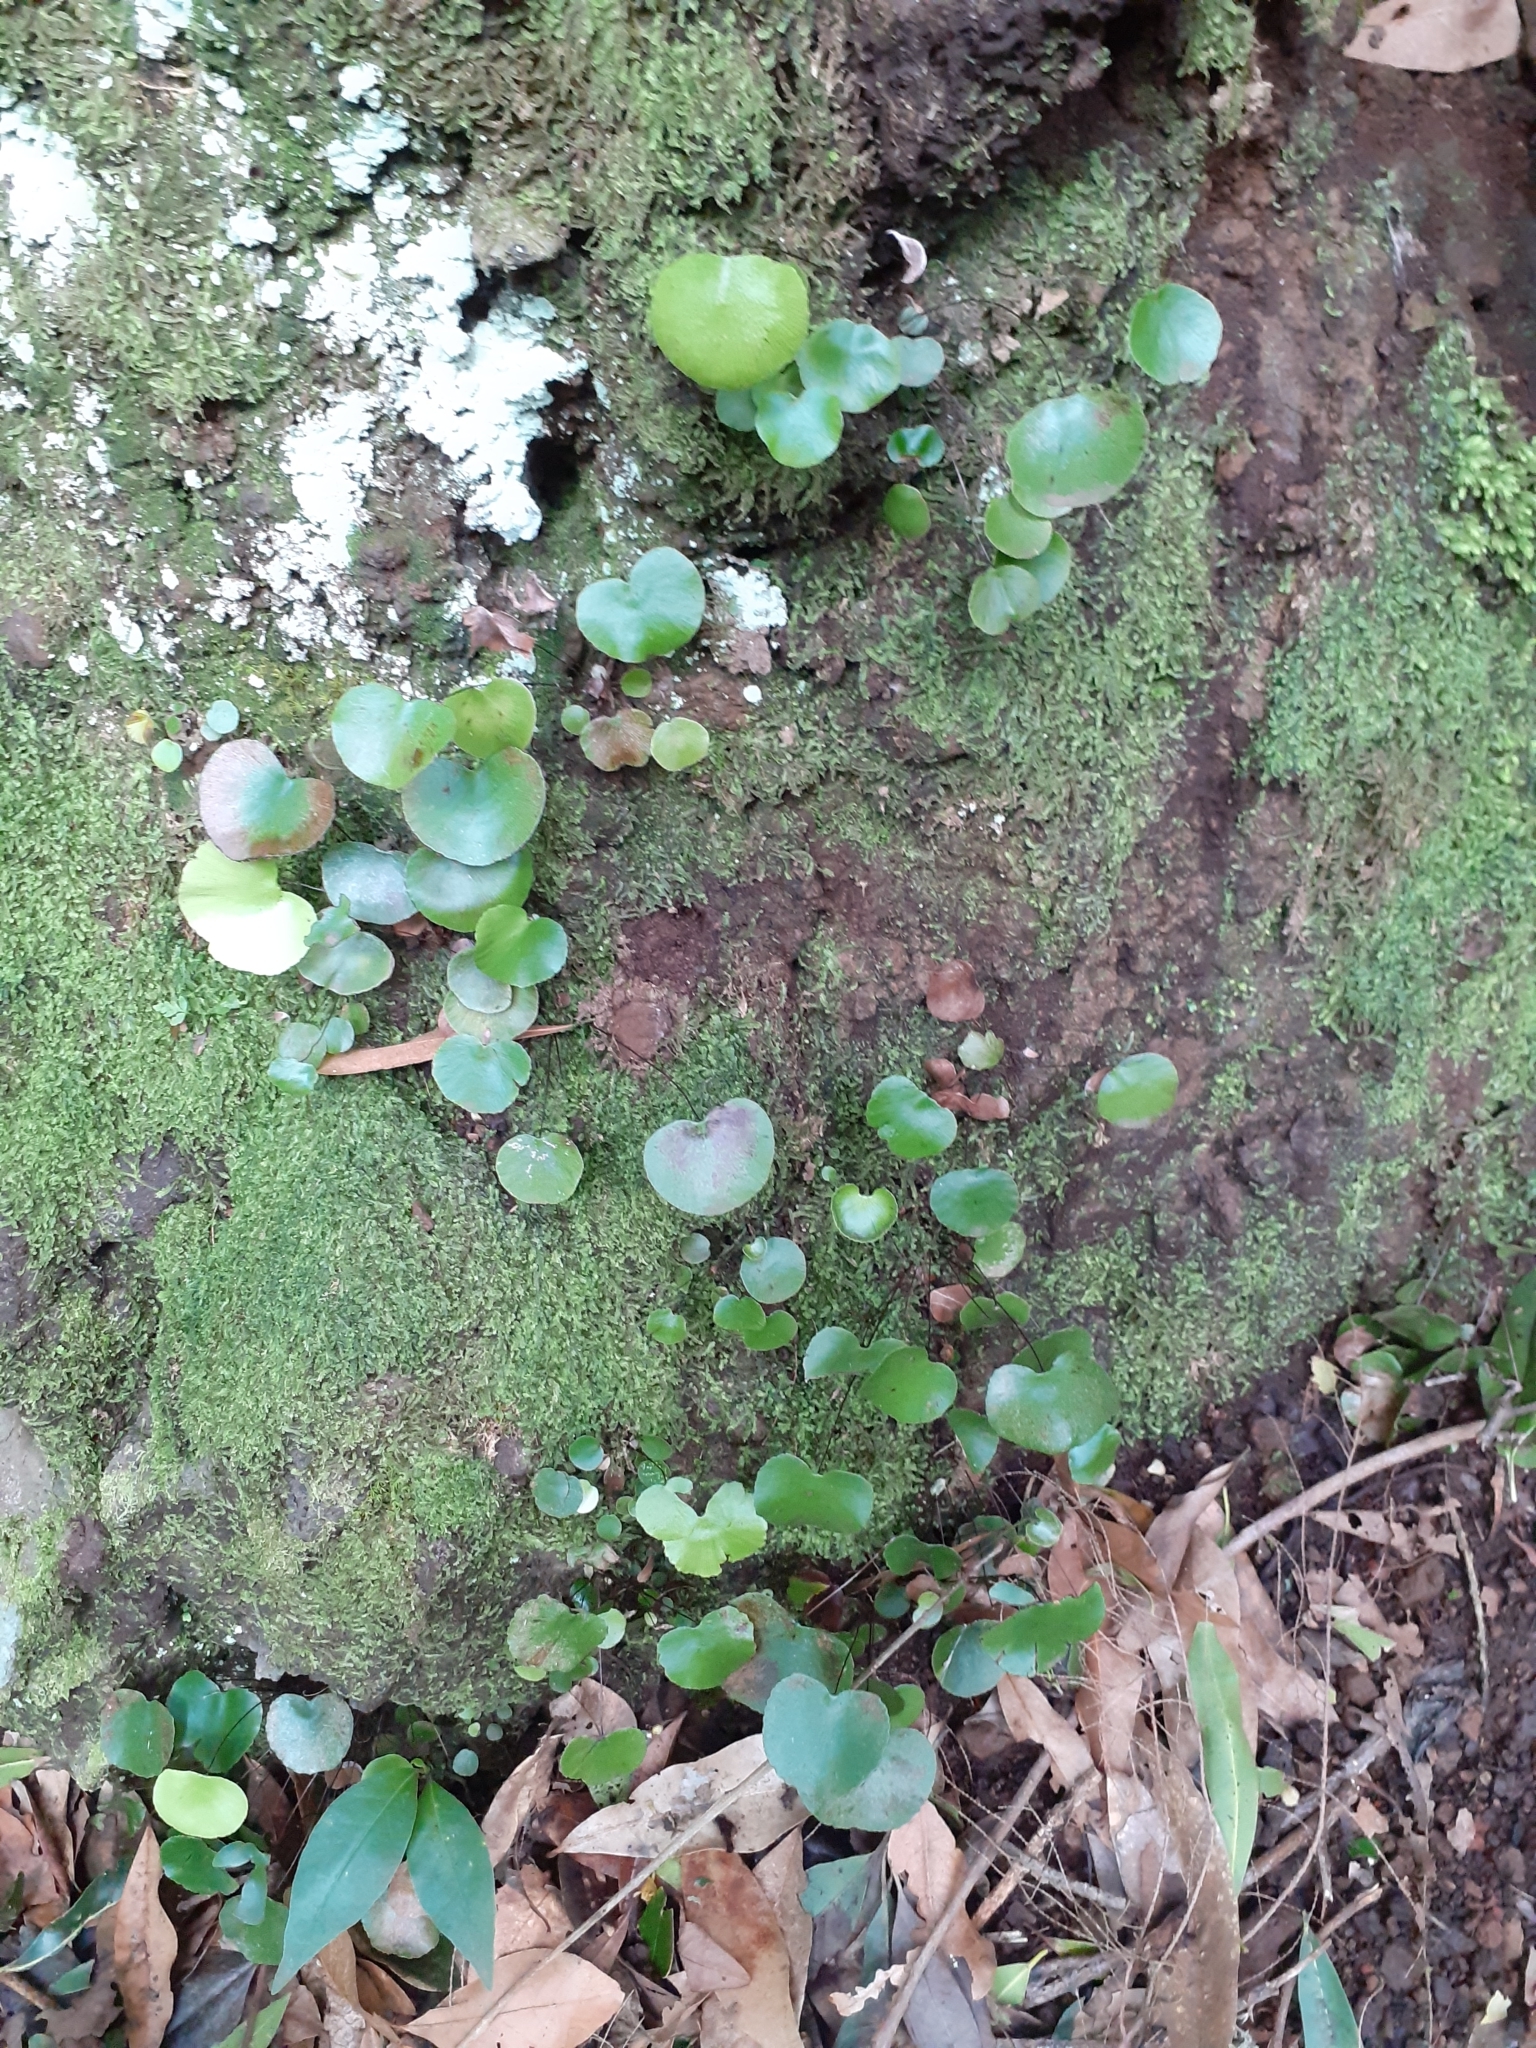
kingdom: Plantae
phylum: Tracheophyta
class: Polypodiopsida
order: Polypodiales
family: Pteridaceae
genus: Adiantum
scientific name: Adiantum reniforme
